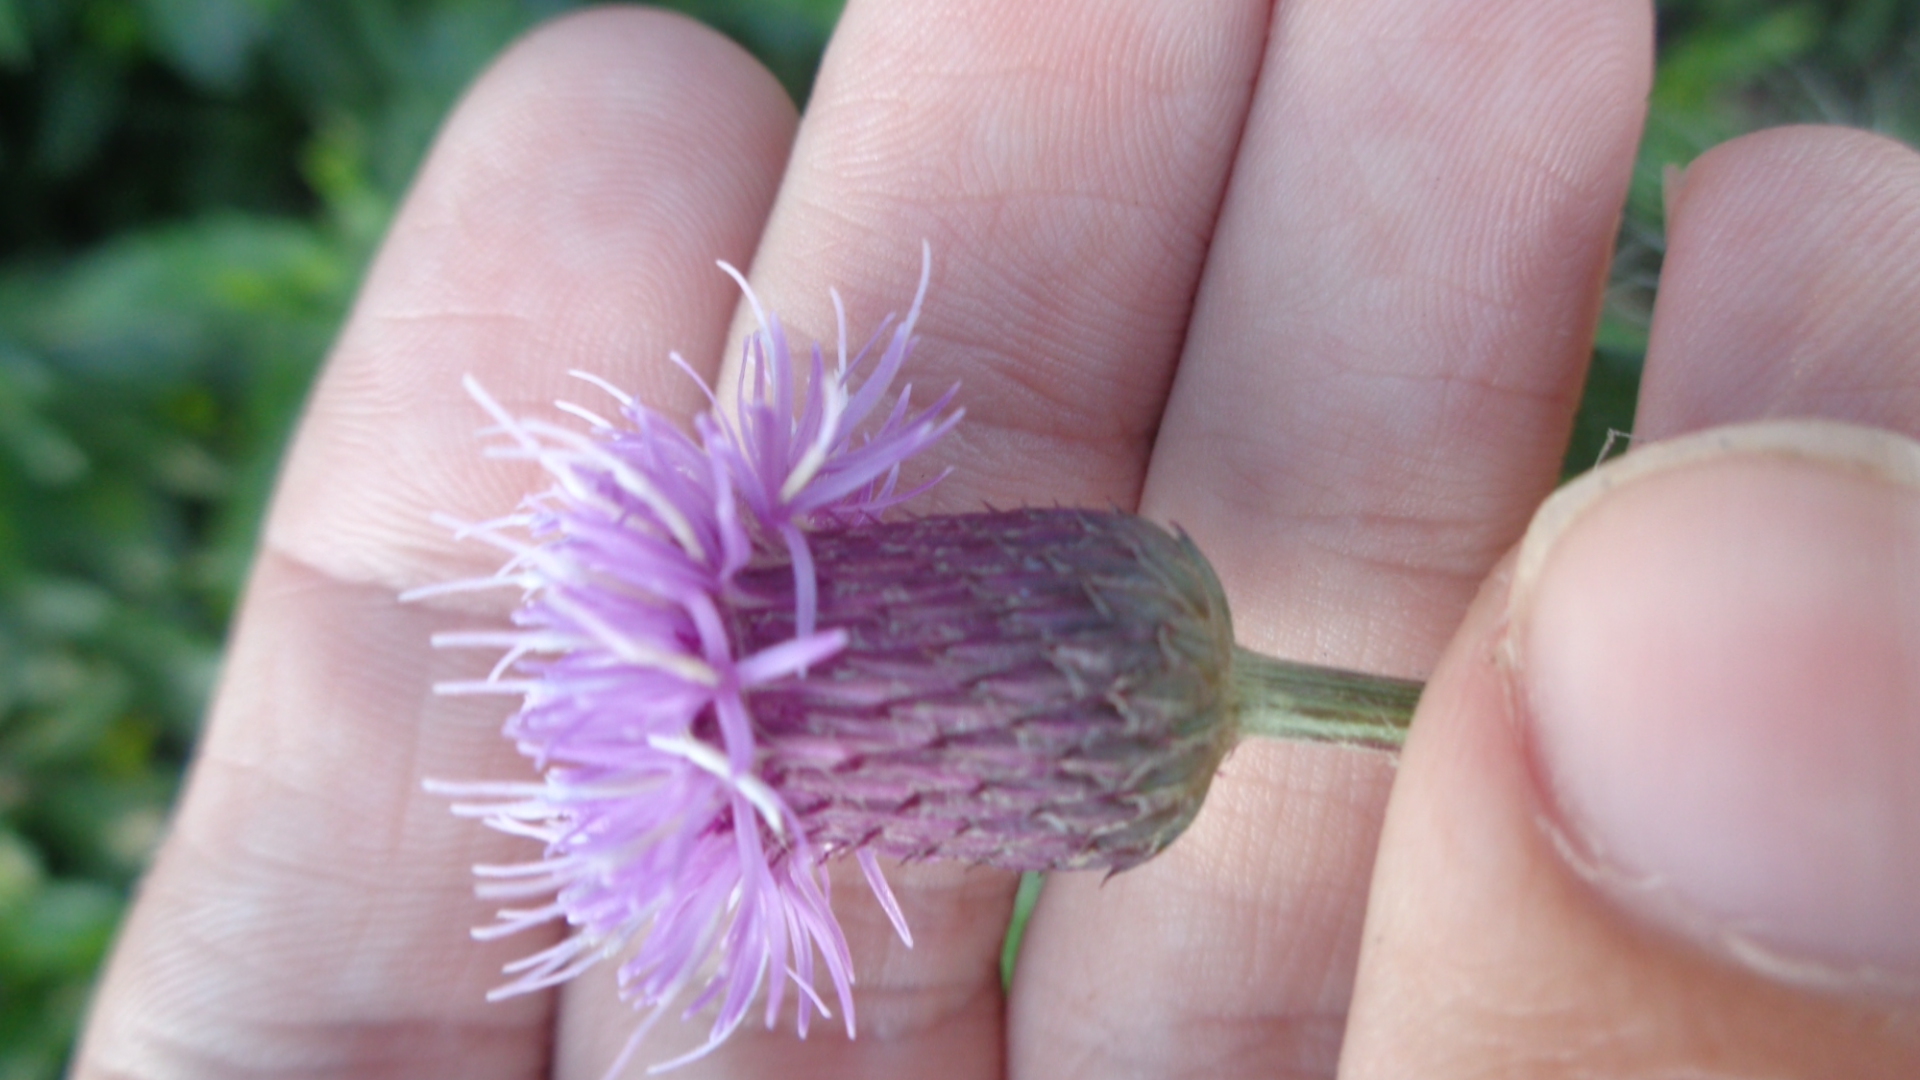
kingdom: Plantae
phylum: Tracheophyta
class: Magnoliopsida
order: Asterales
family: Asteraceae
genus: Cirsium
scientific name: Cirsium arvense
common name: Creeping thistle
